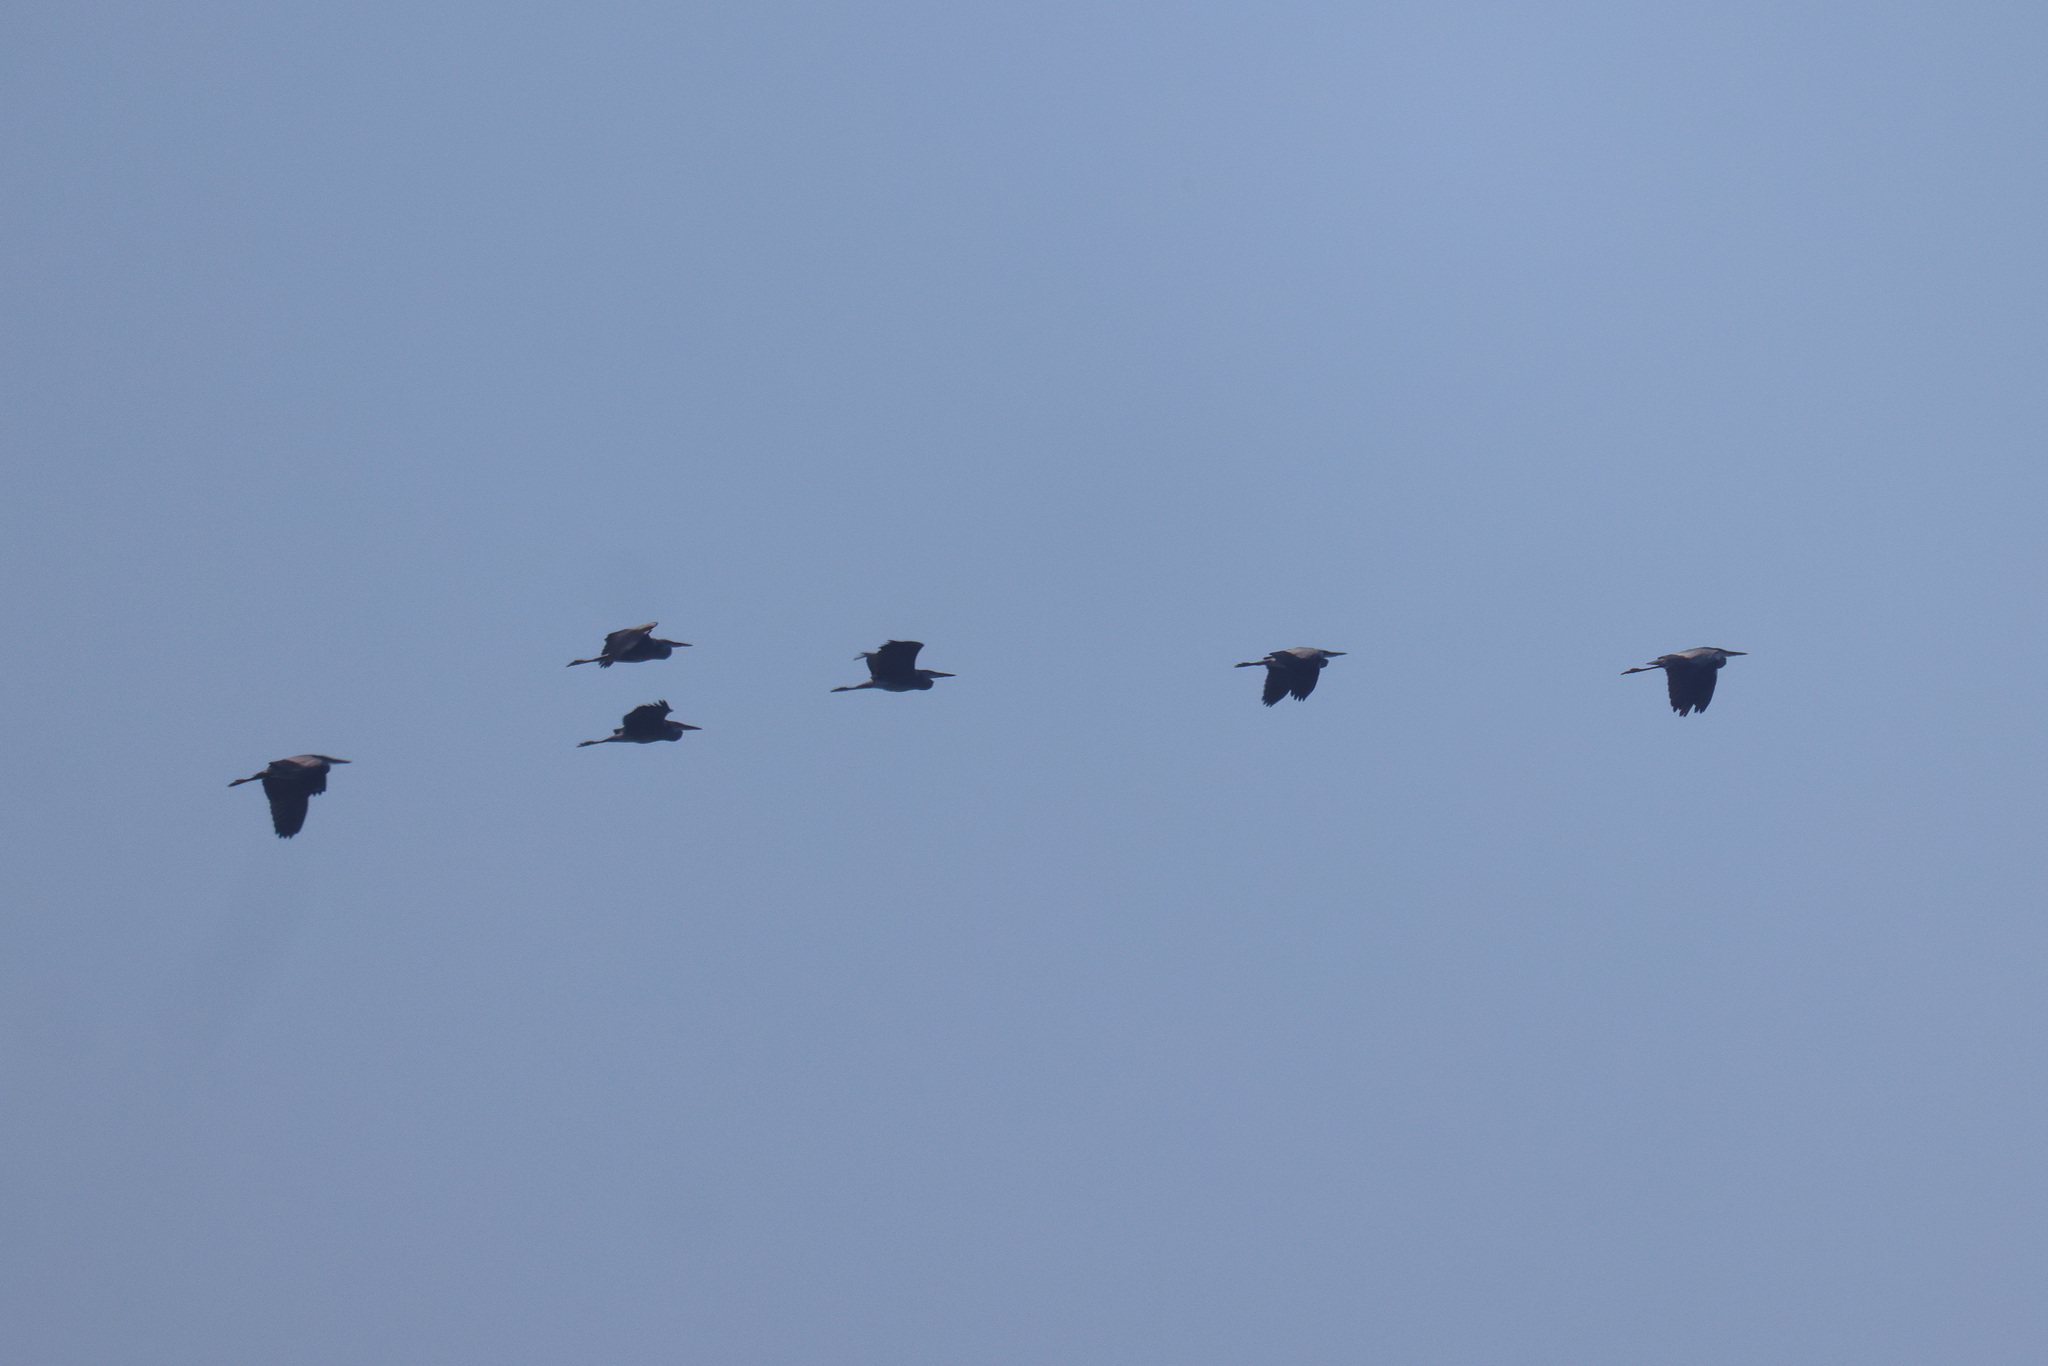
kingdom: Animalia
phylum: Chordata
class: Aves
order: Pelecaniformes
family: Ardeidae
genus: Ardea
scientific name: Ardea cinerea
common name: Grey heron
